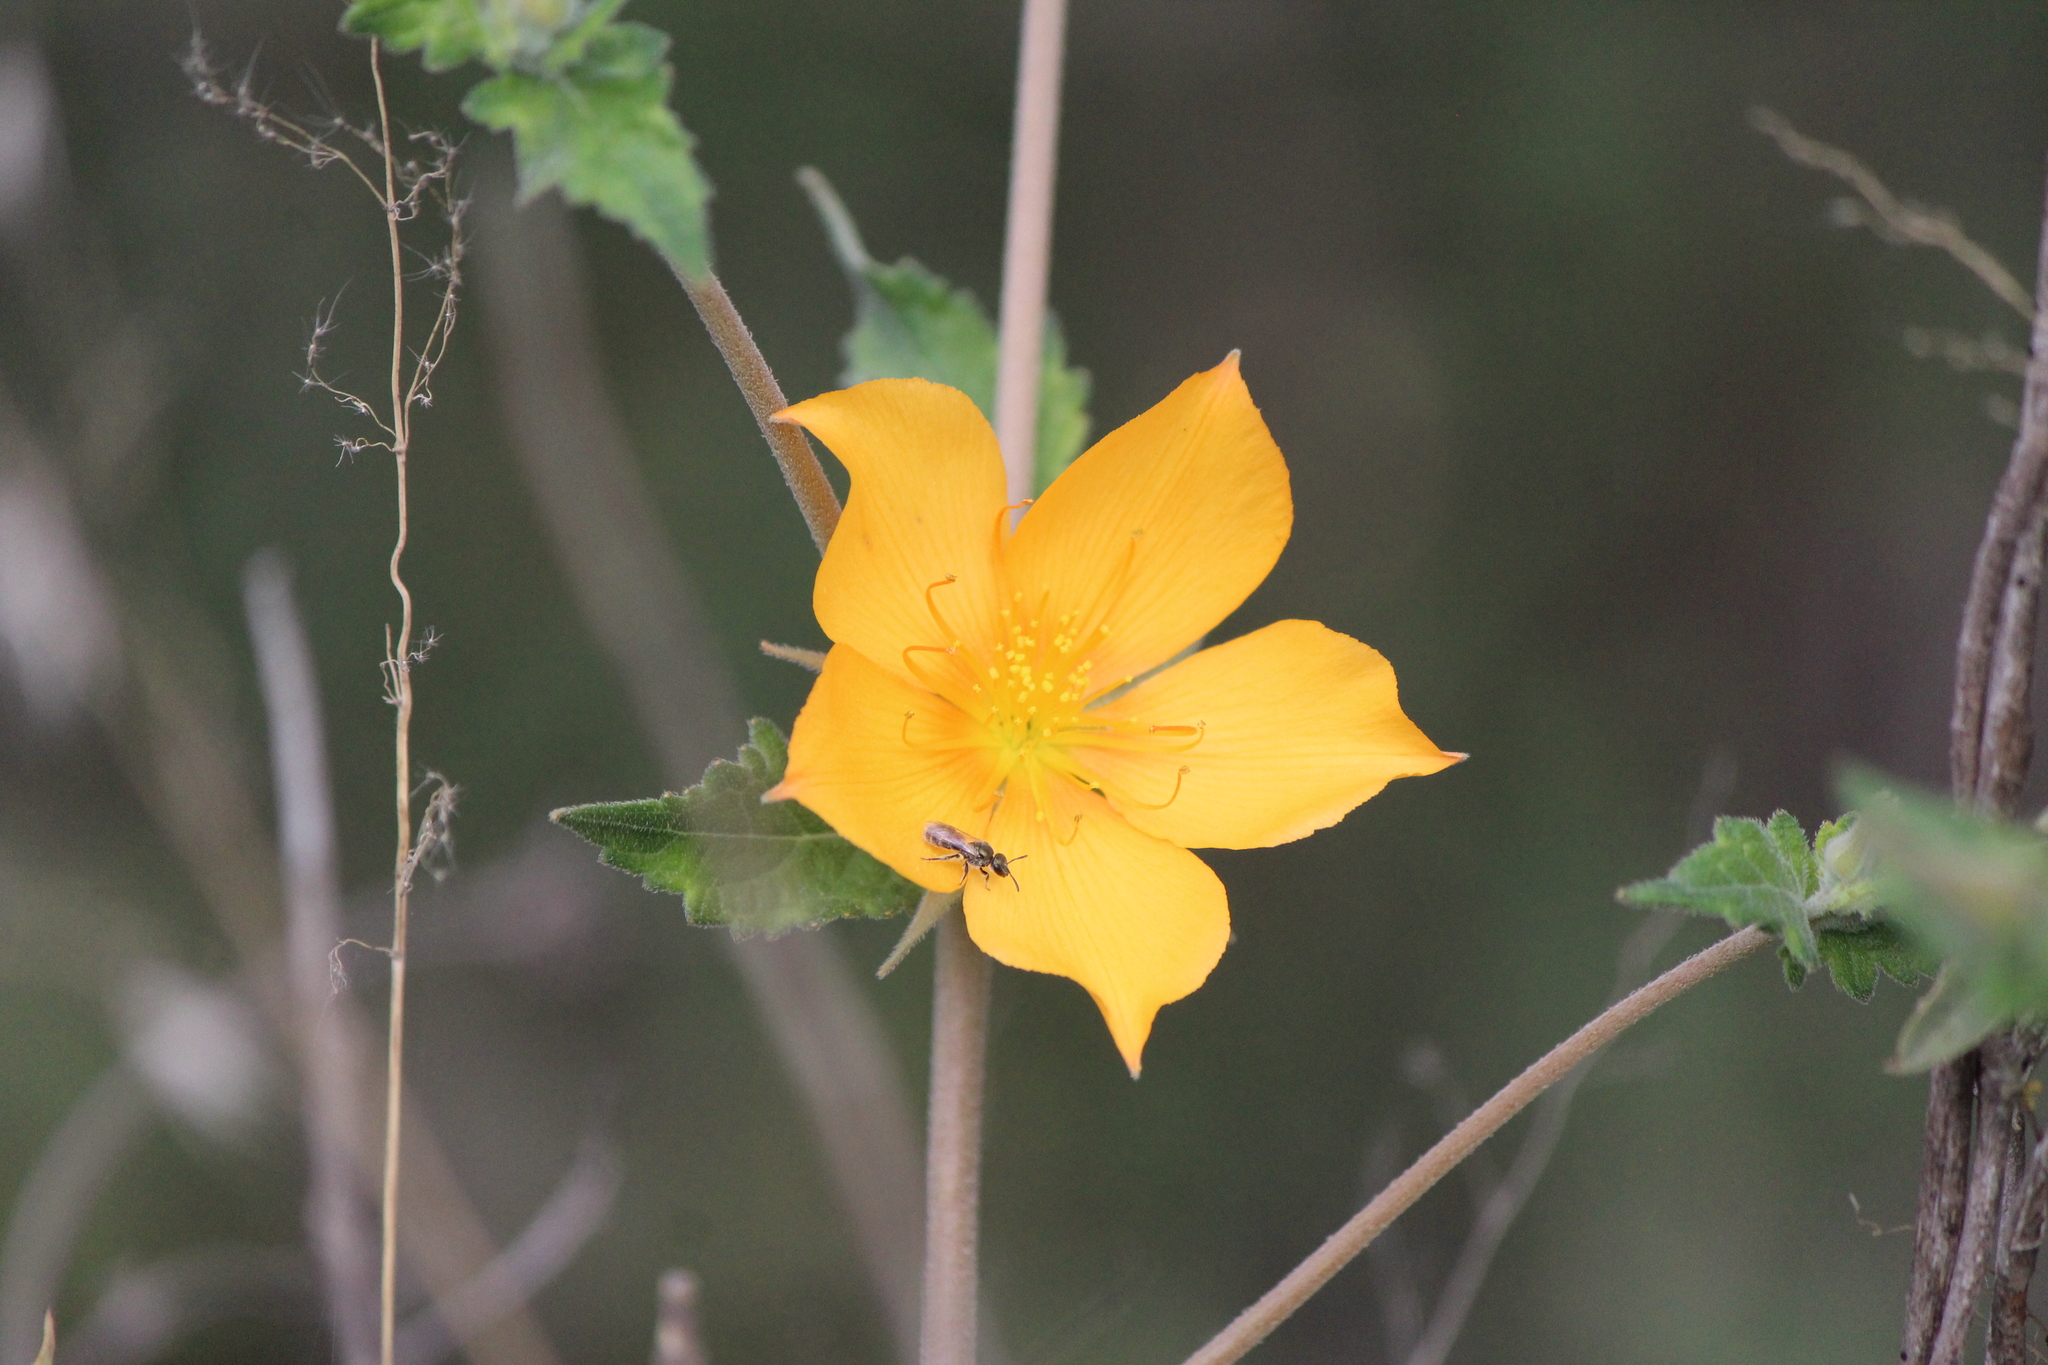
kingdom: Plantae
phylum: Tracheophyta
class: Magnoliopsida
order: Cornales
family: Loasaceae
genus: Mentzelia
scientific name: Mentzelia hispida
